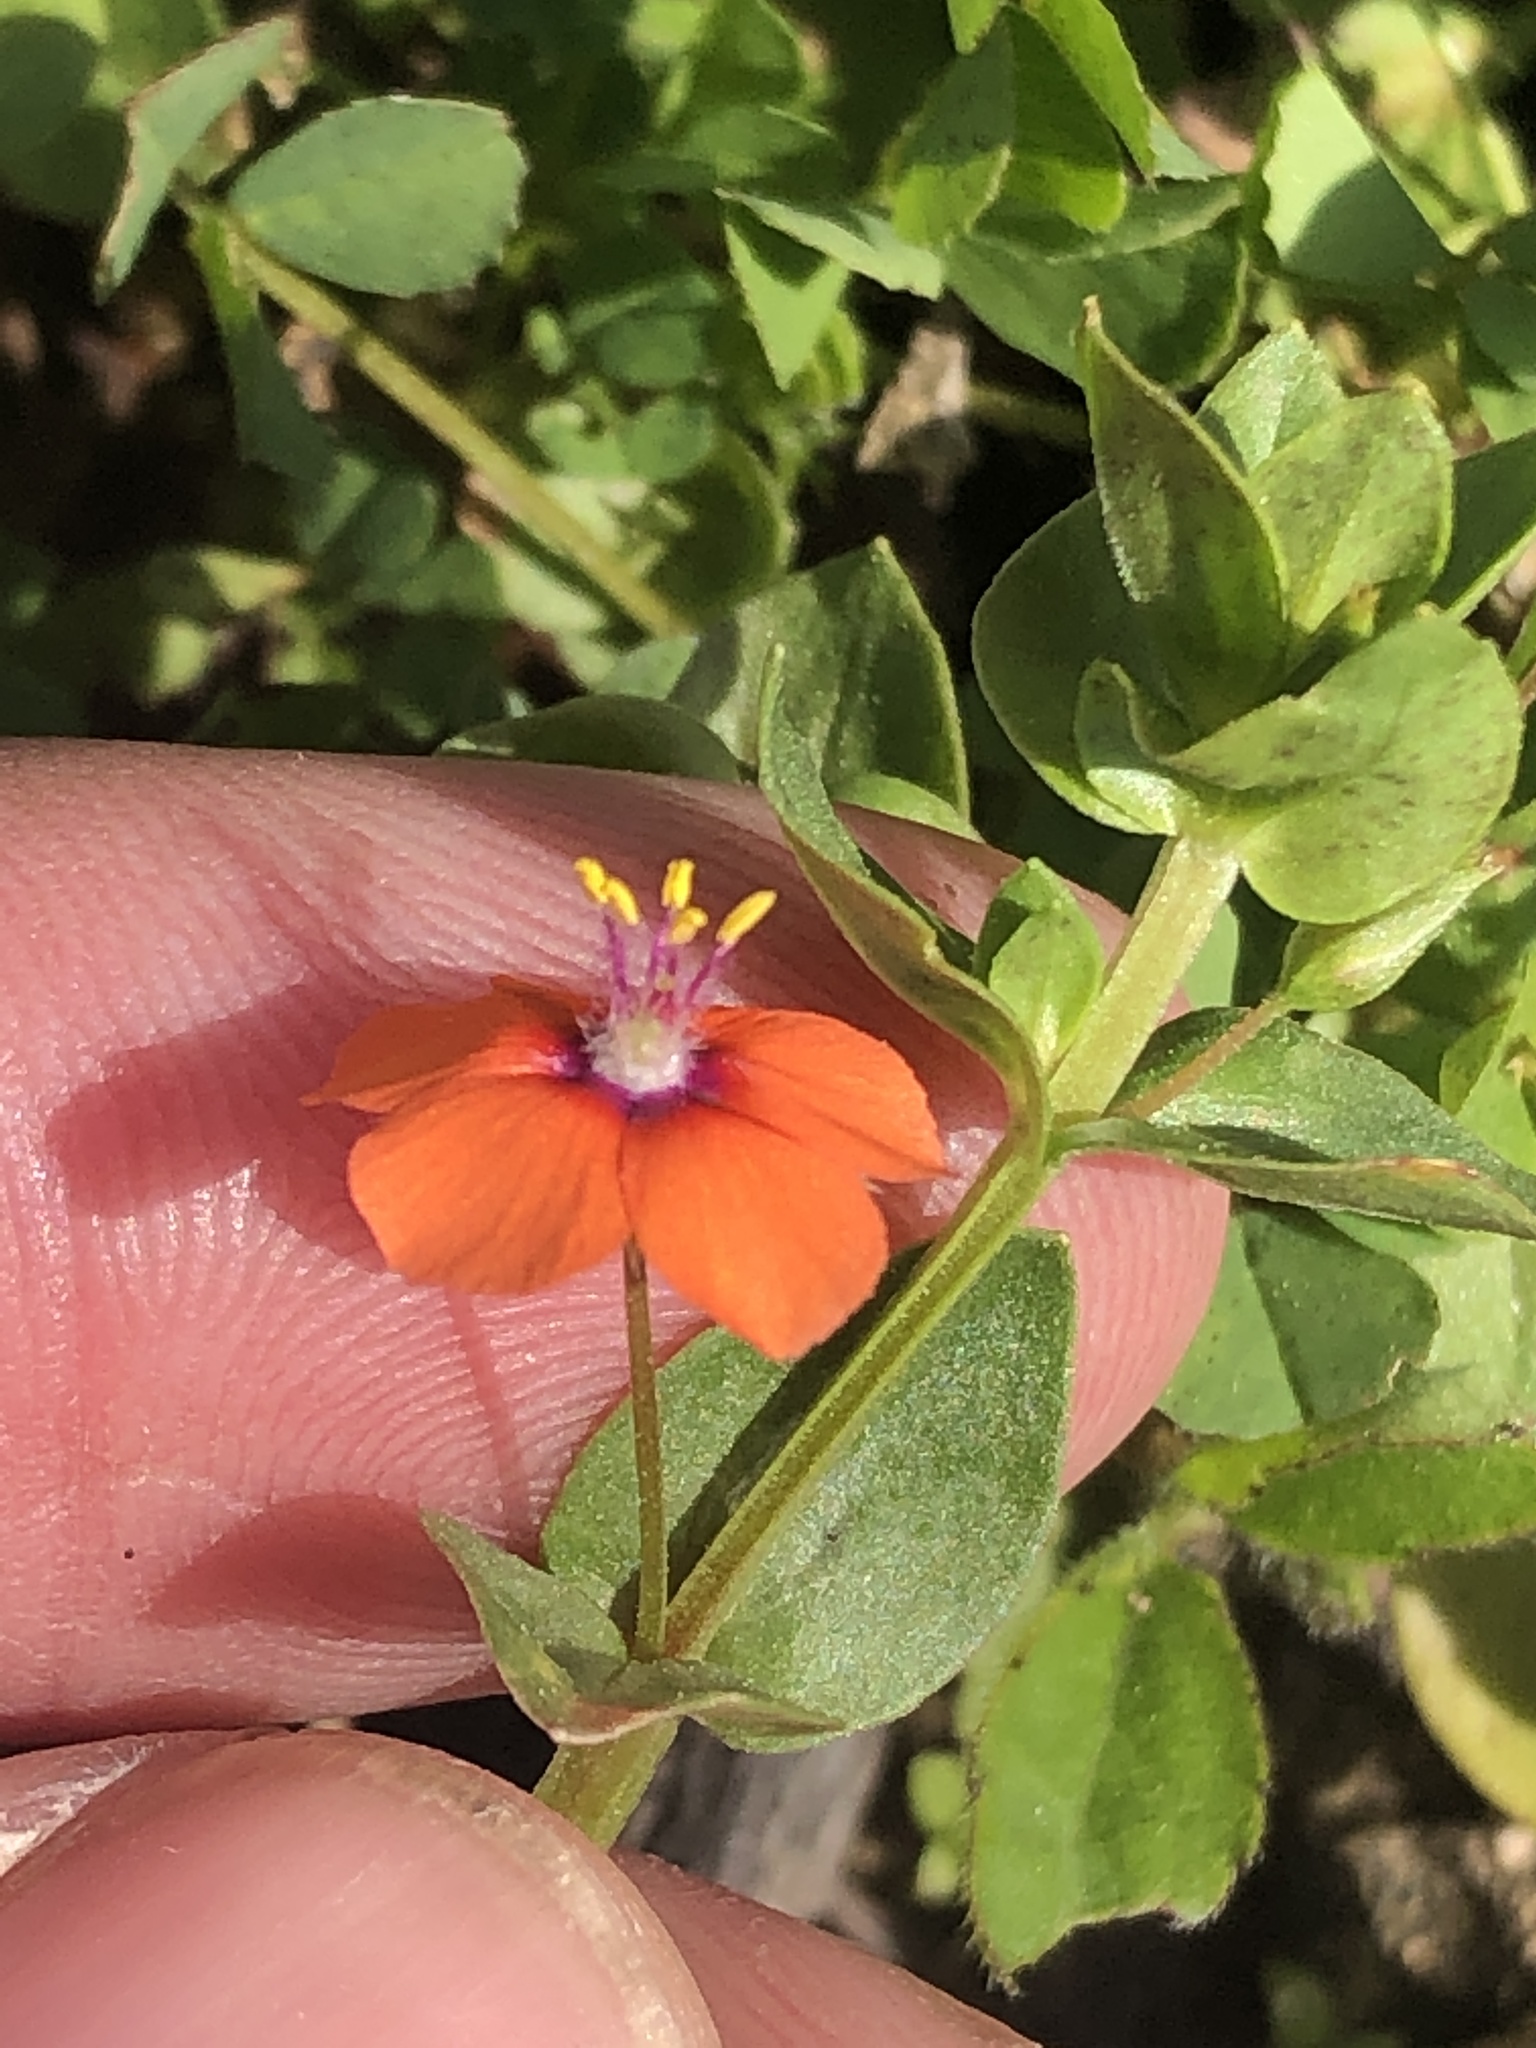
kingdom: Plantae
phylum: Tracheophyta
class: Magnoliopsida
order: Ericales
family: Primulaceae
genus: Lysimachia
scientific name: Lysimachia arvensis
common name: Scarlet pimpernel
